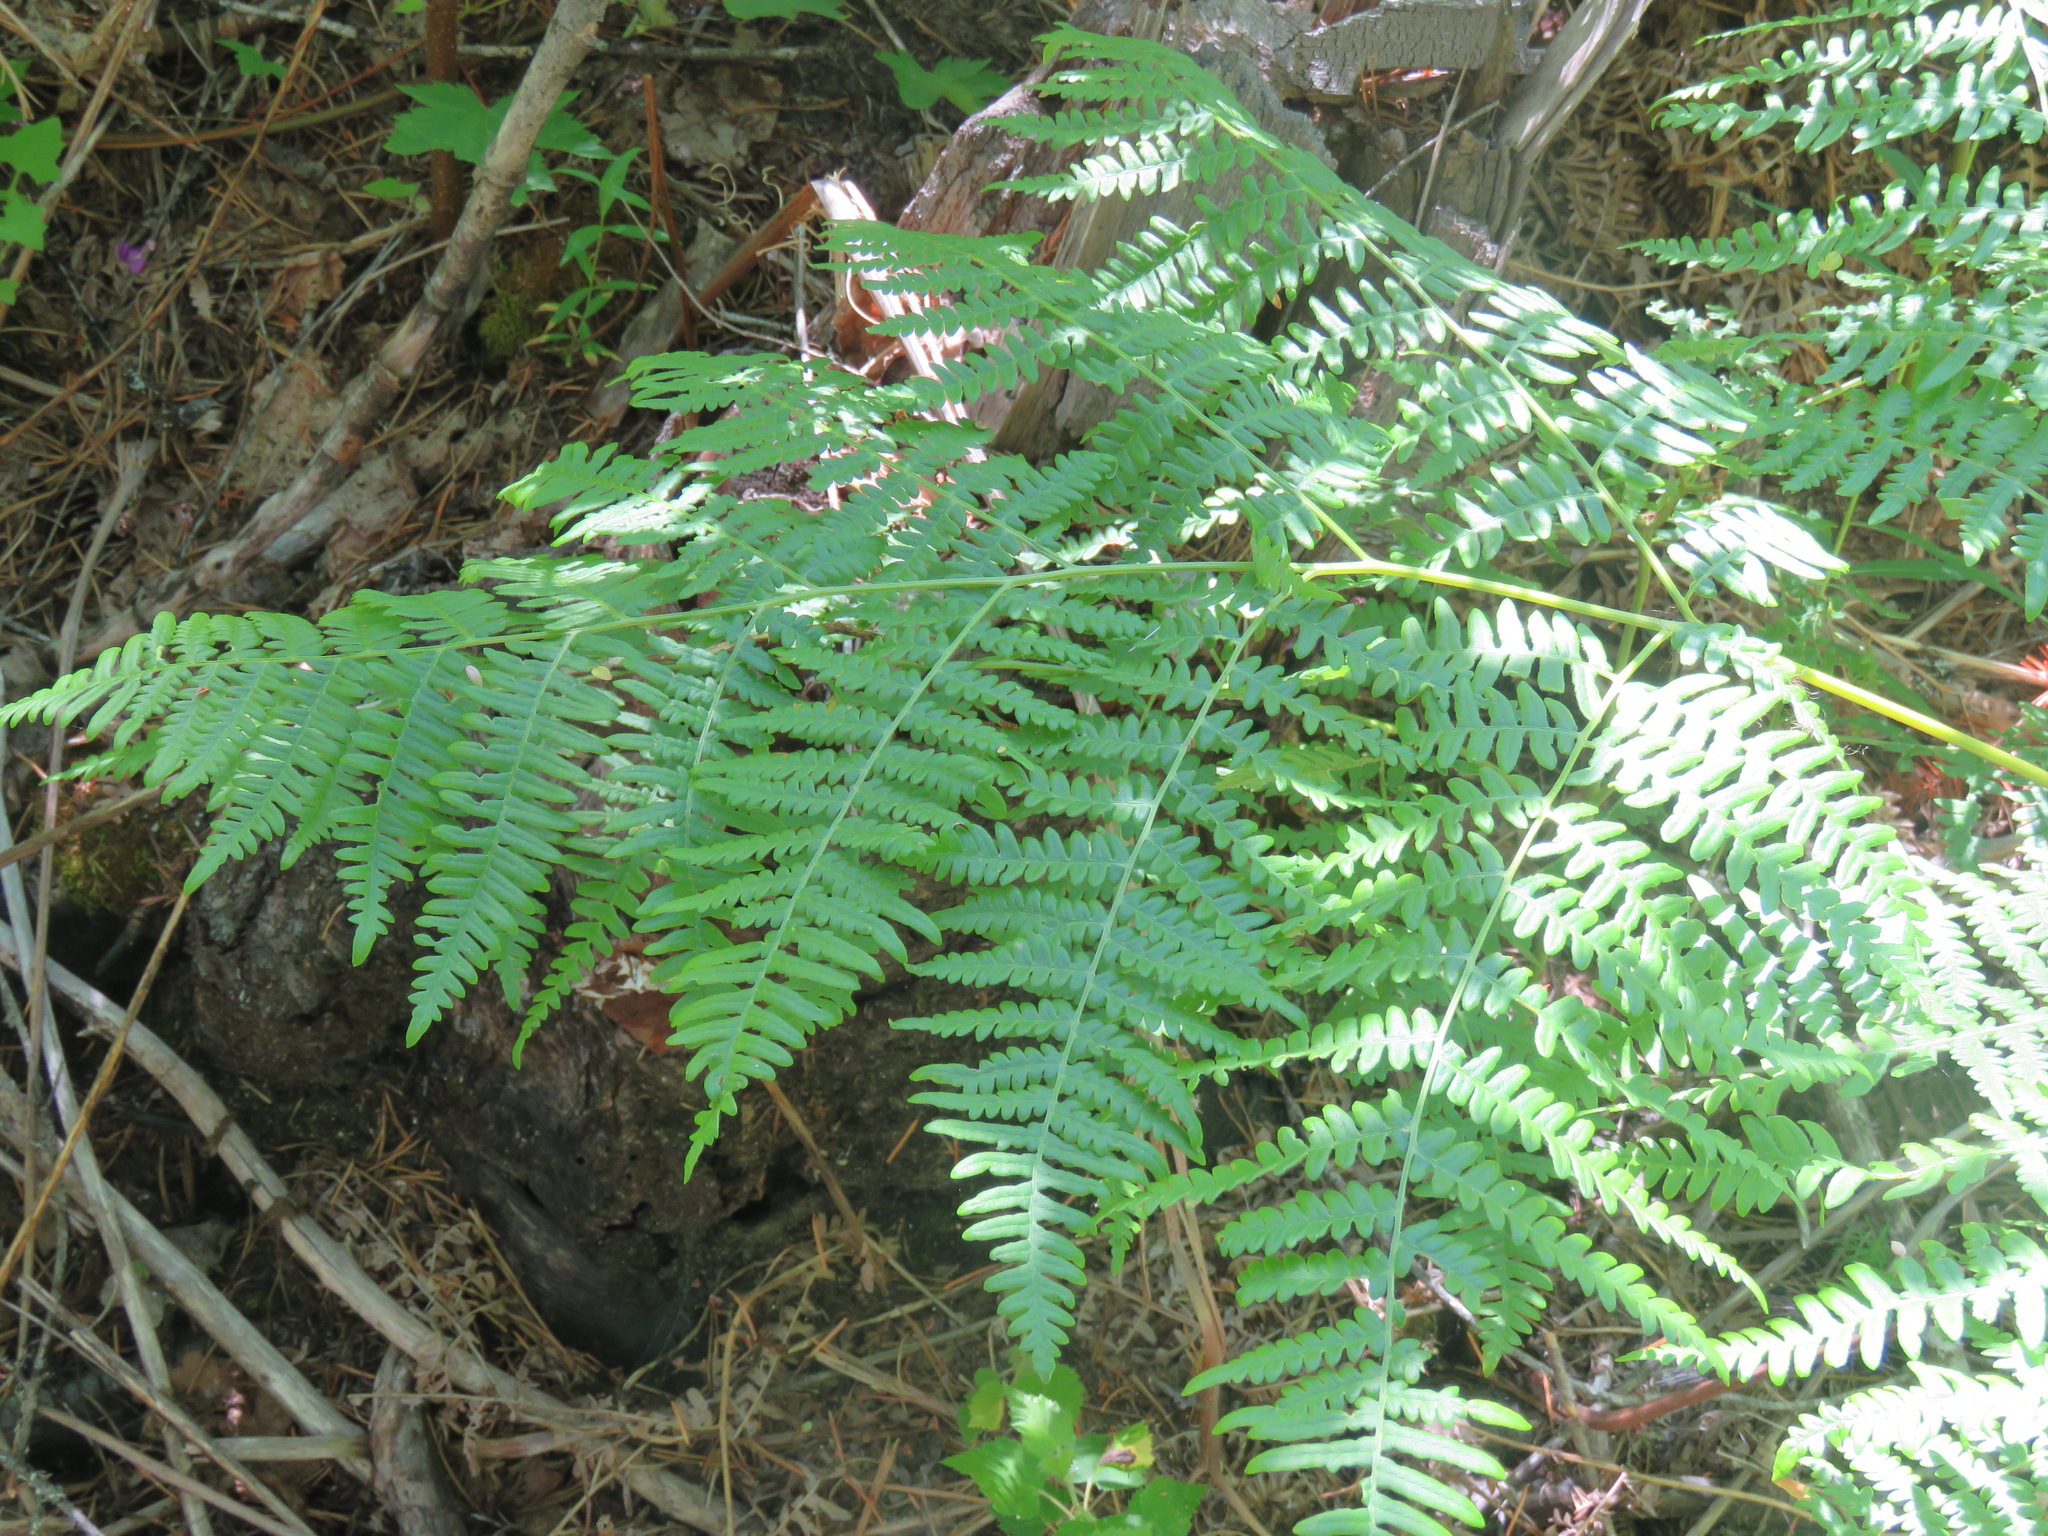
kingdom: Plantae
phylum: Tracheophyta
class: Polypodiopsida
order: Polypodiales
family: Dennstaedtiaceae
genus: Pteridium
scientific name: Pteridium aquilinum
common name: Bracken
